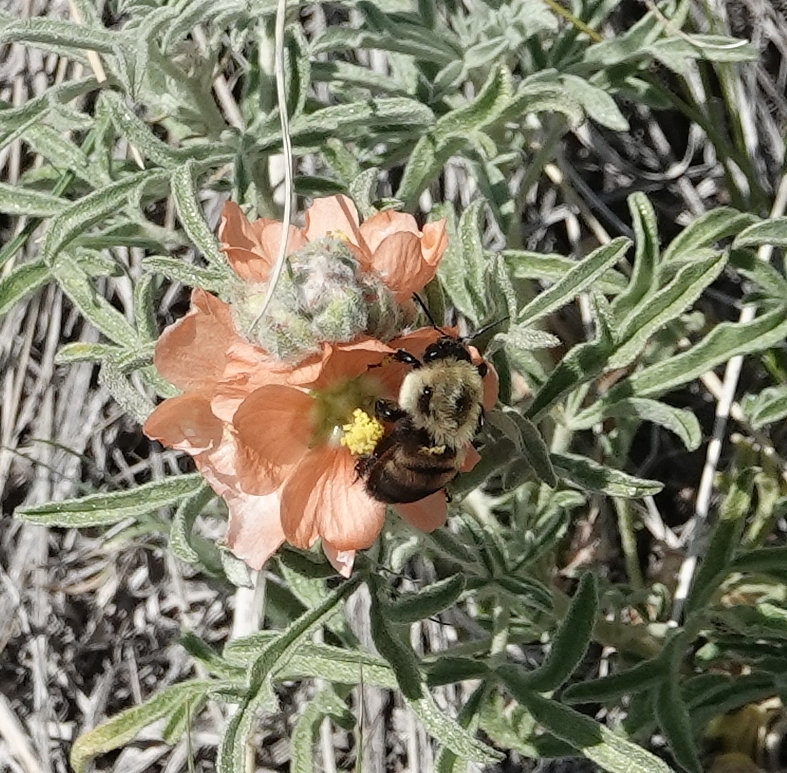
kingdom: Animalia
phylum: Arthropoda
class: Insecta
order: Hymenoptera
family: Apidae
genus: Bombus
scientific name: Bombus griseocollis
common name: Brown-belted bumble bee
